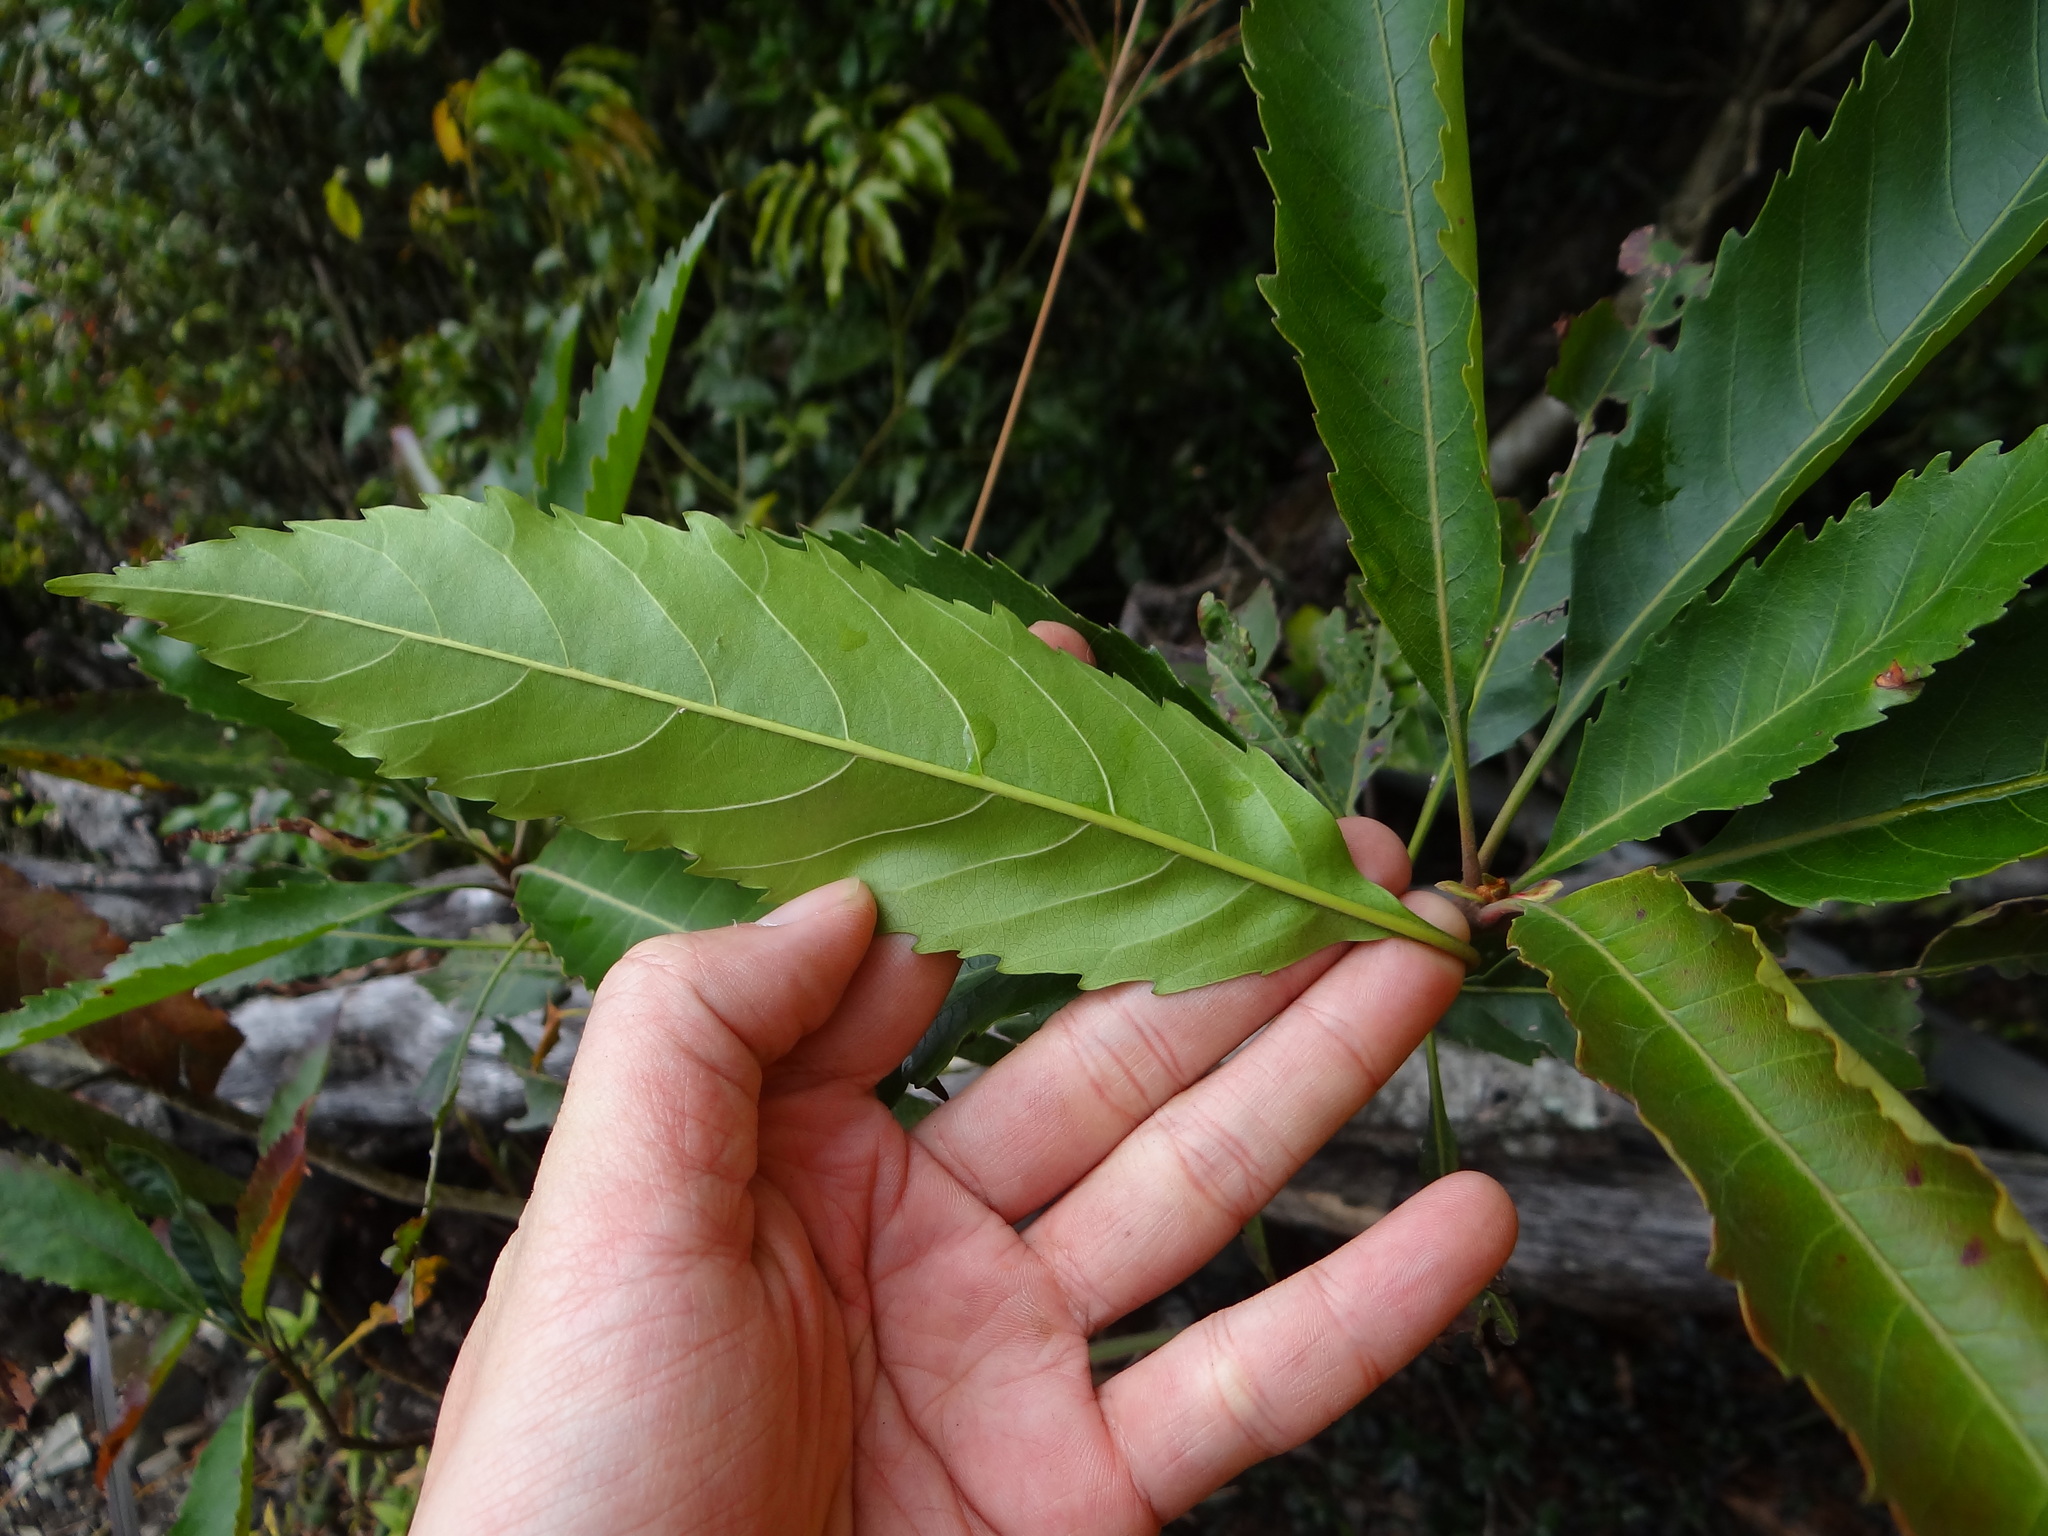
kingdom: Plantae
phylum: Tracheophyta
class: Magnoliopsida
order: Rosales
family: Rosaceae
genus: Rhaphiolepis
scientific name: Rhaphiolepis deflexa
